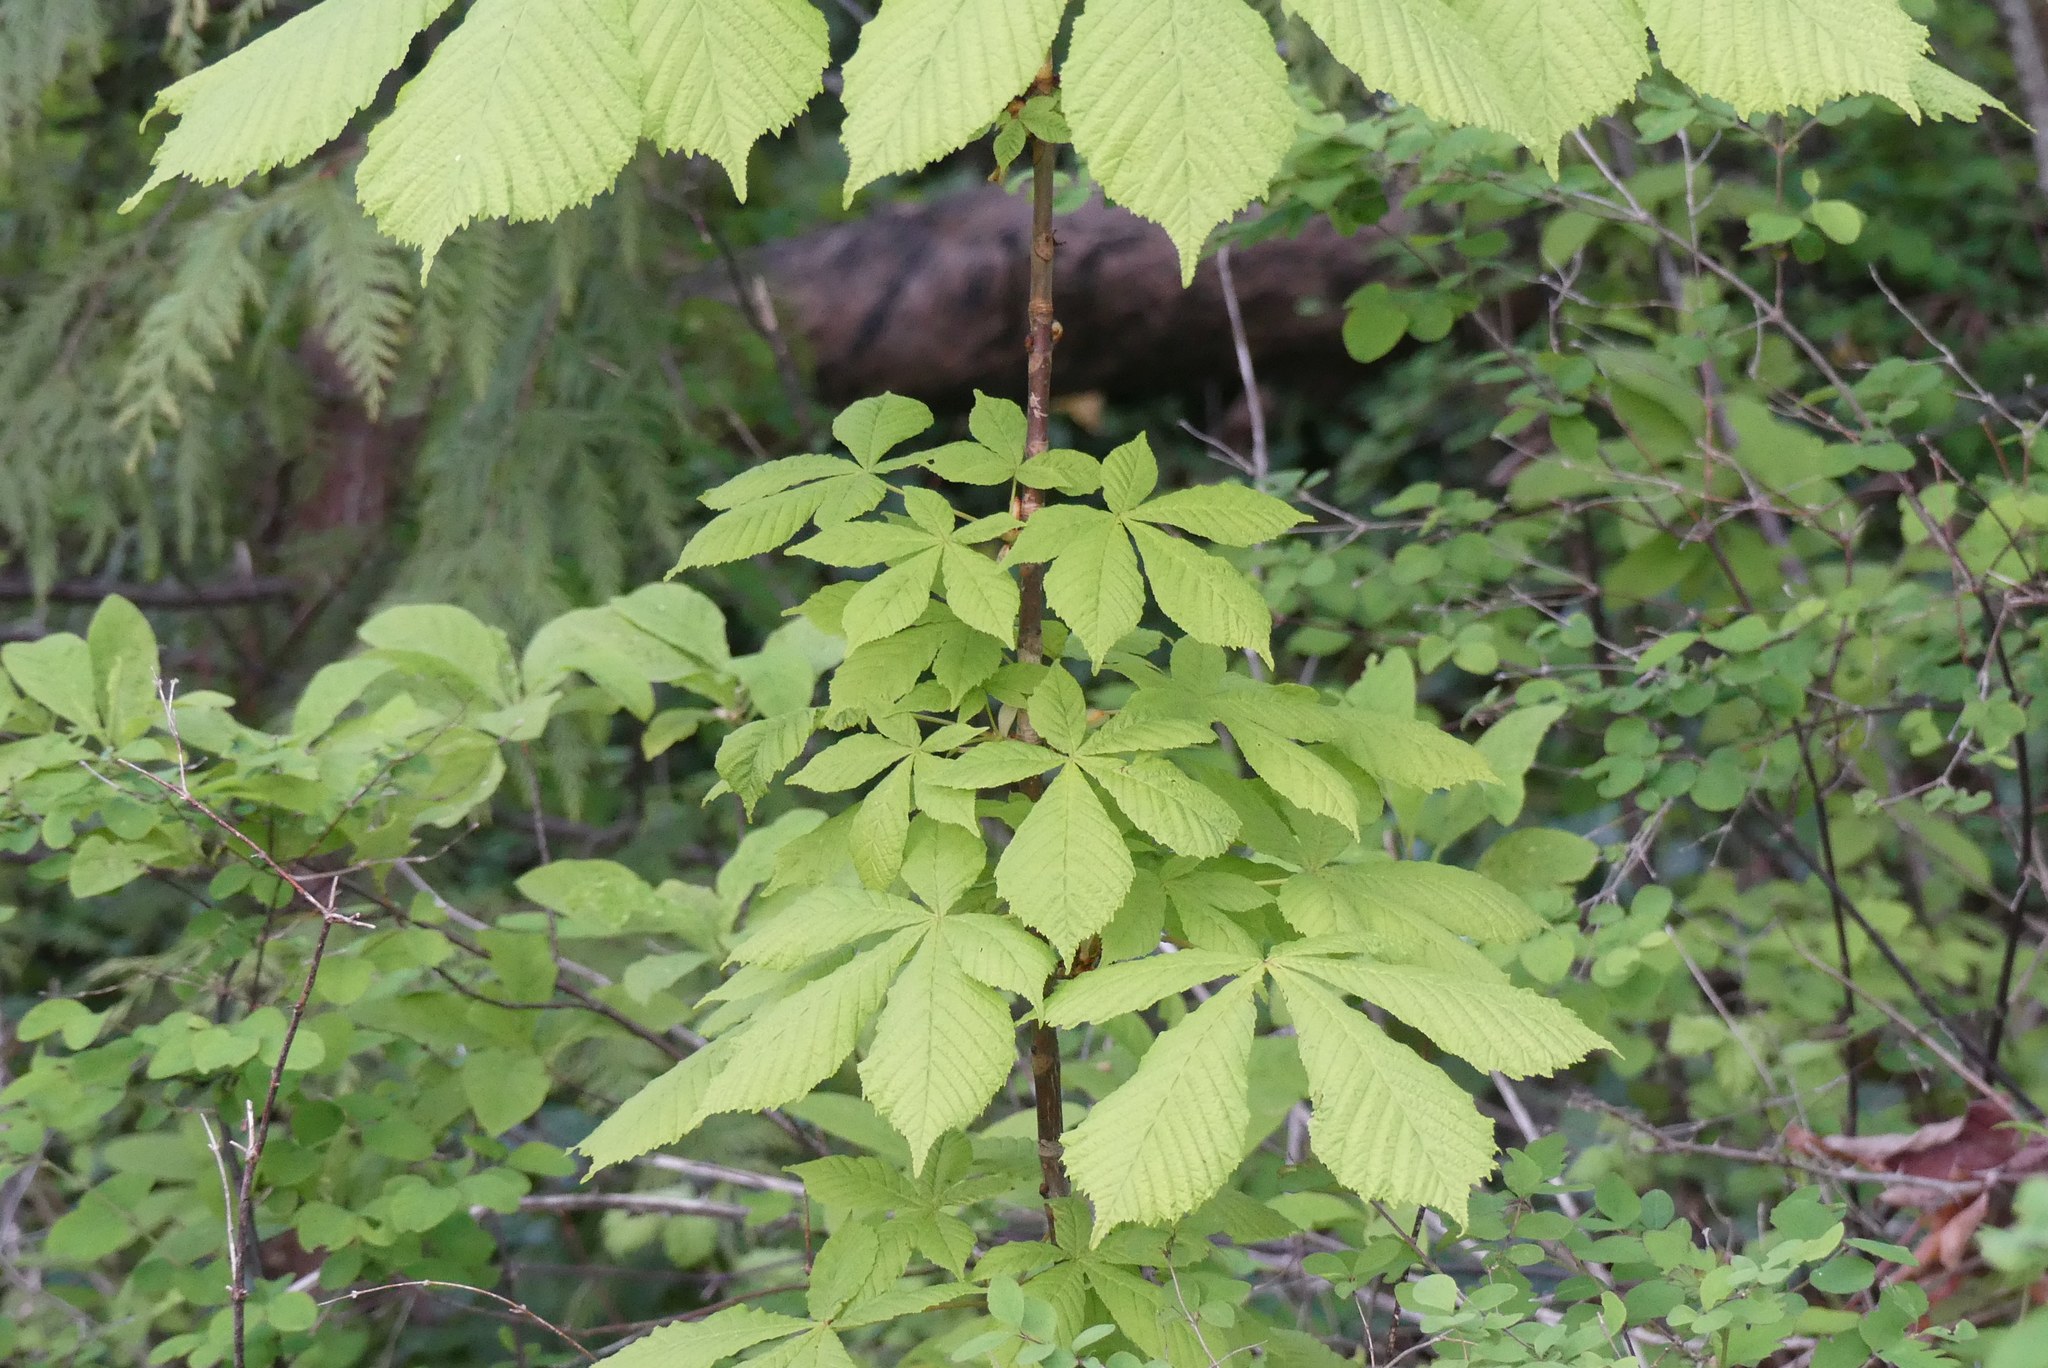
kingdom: Plantae
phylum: Tracheophyta
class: Magnoliopsida
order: Sapindales
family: Sapindaceae
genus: Aesculus
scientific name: Aesculus hippocastanum
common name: Horse-chestnut
